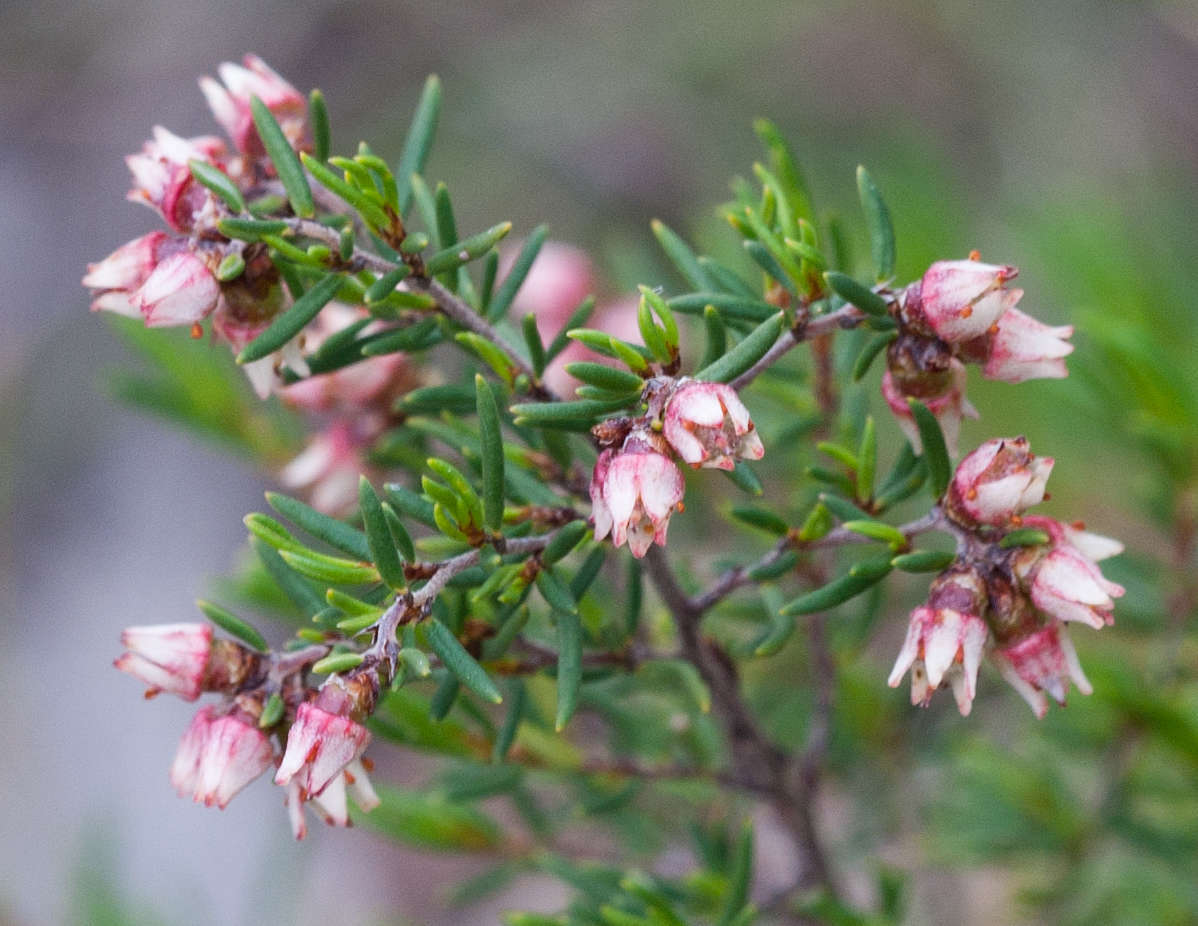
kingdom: Plantae
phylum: Tracheophyta
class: Magnoliopsida
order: Rosales
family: Rhamnaceae
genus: Cryptandra
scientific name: Cryptandra tomentosa
